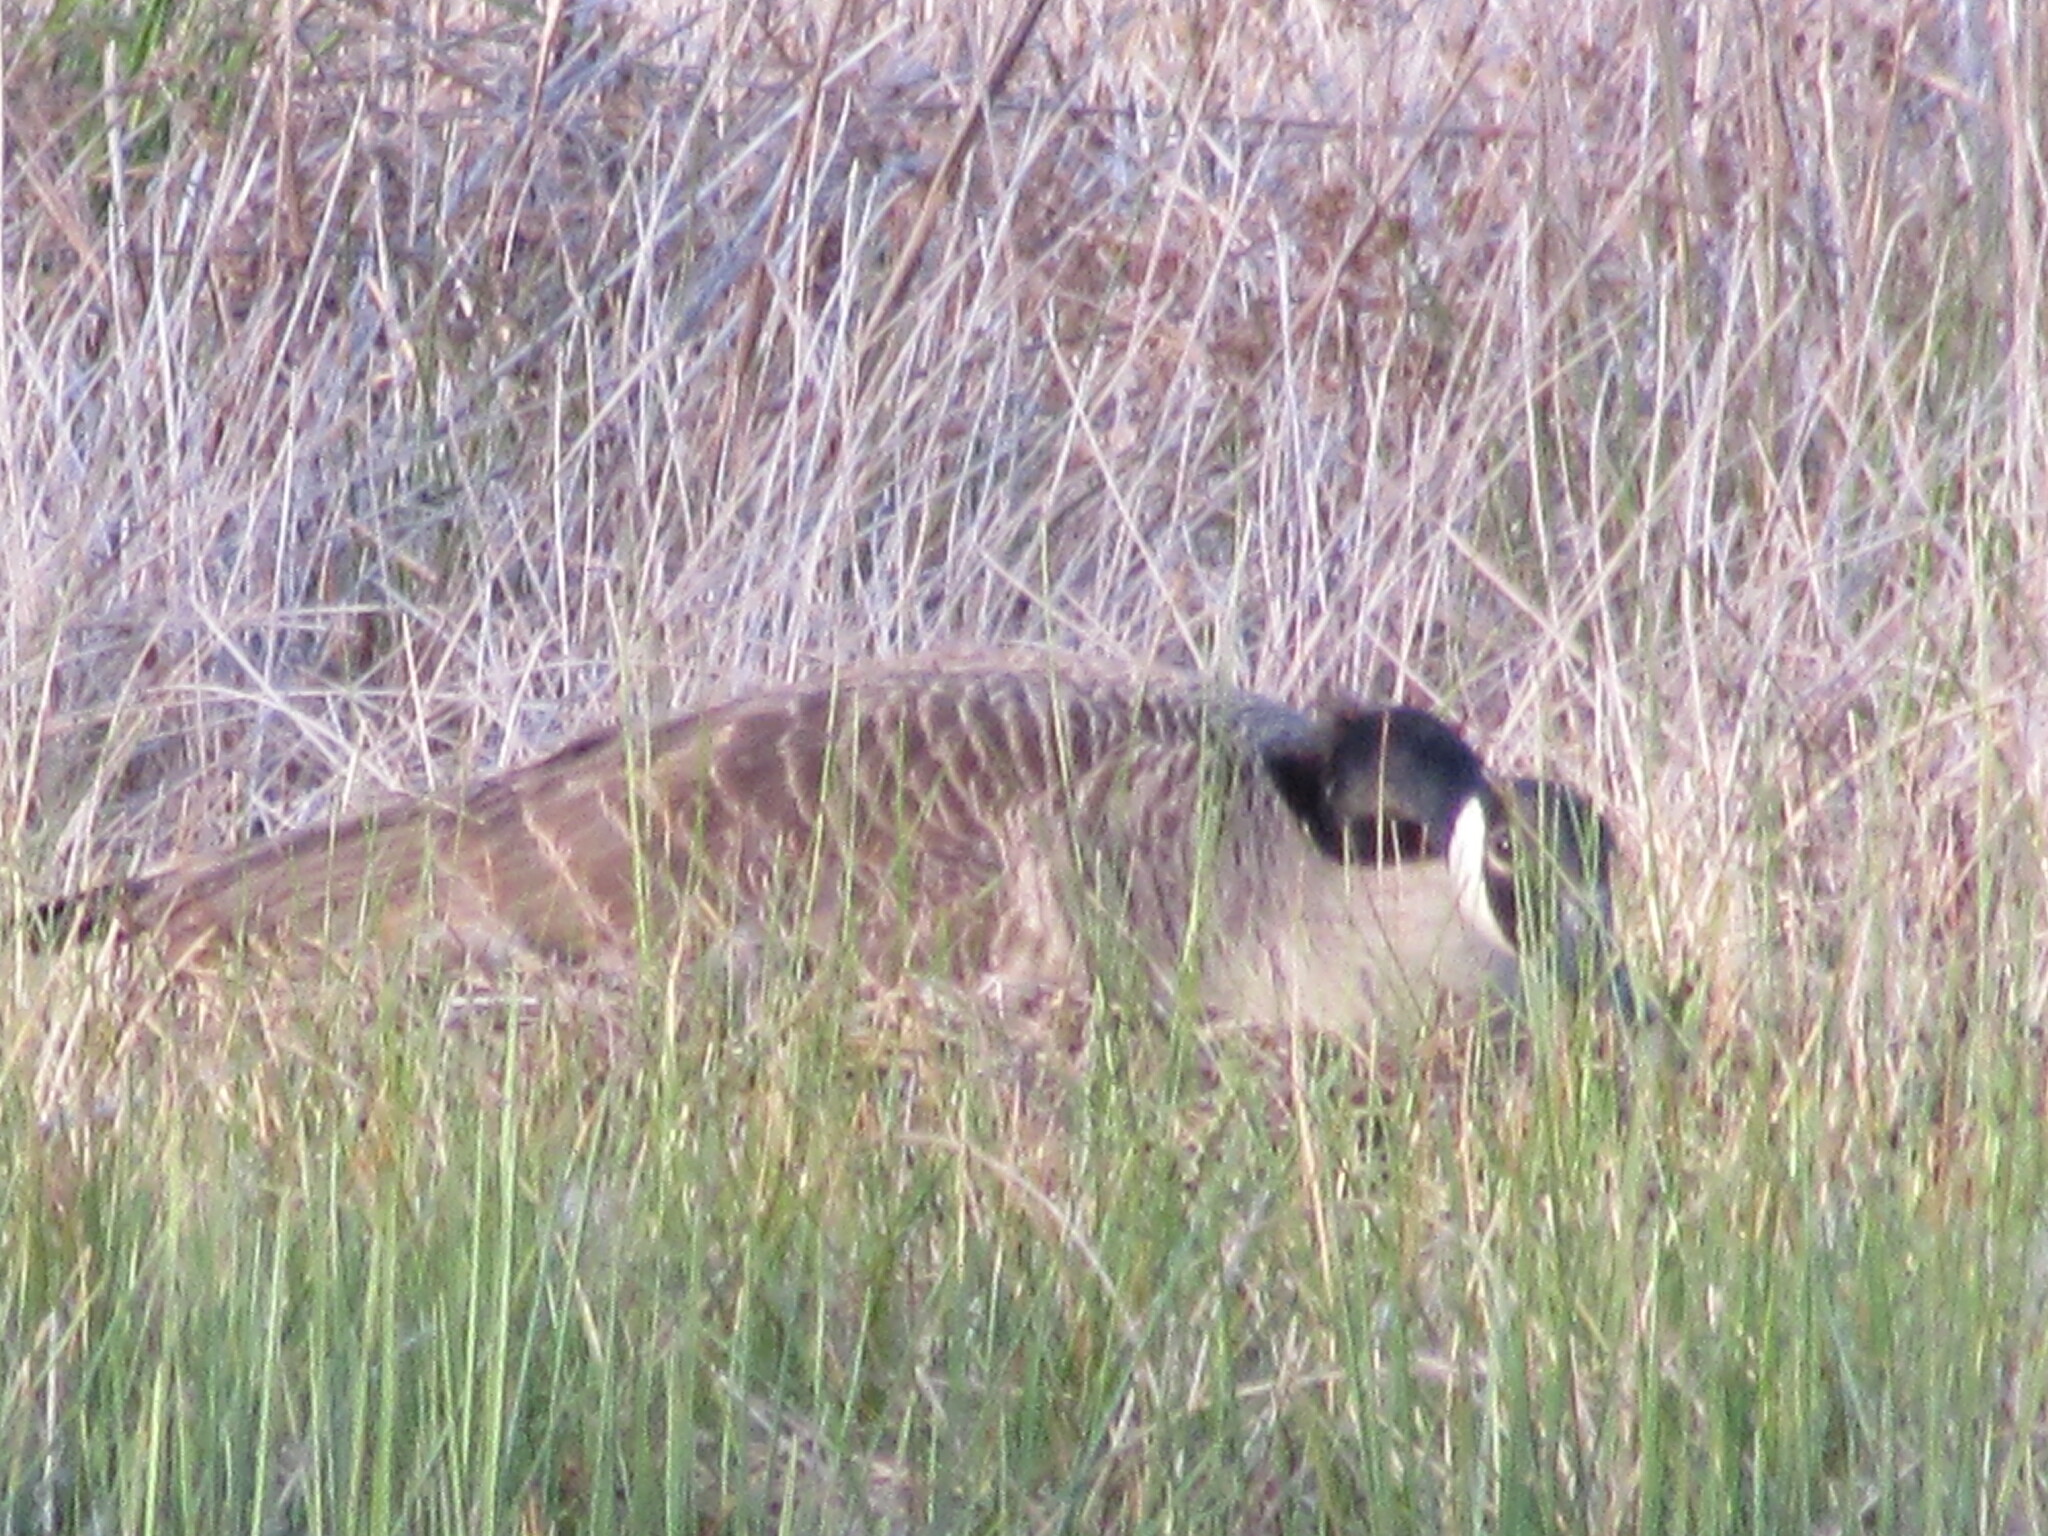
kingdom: Animalia
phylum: Chordata
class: Aves
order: Anseriformes
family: Anatidae
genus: Branta
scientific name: Branta canadensis
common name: Canada goose
